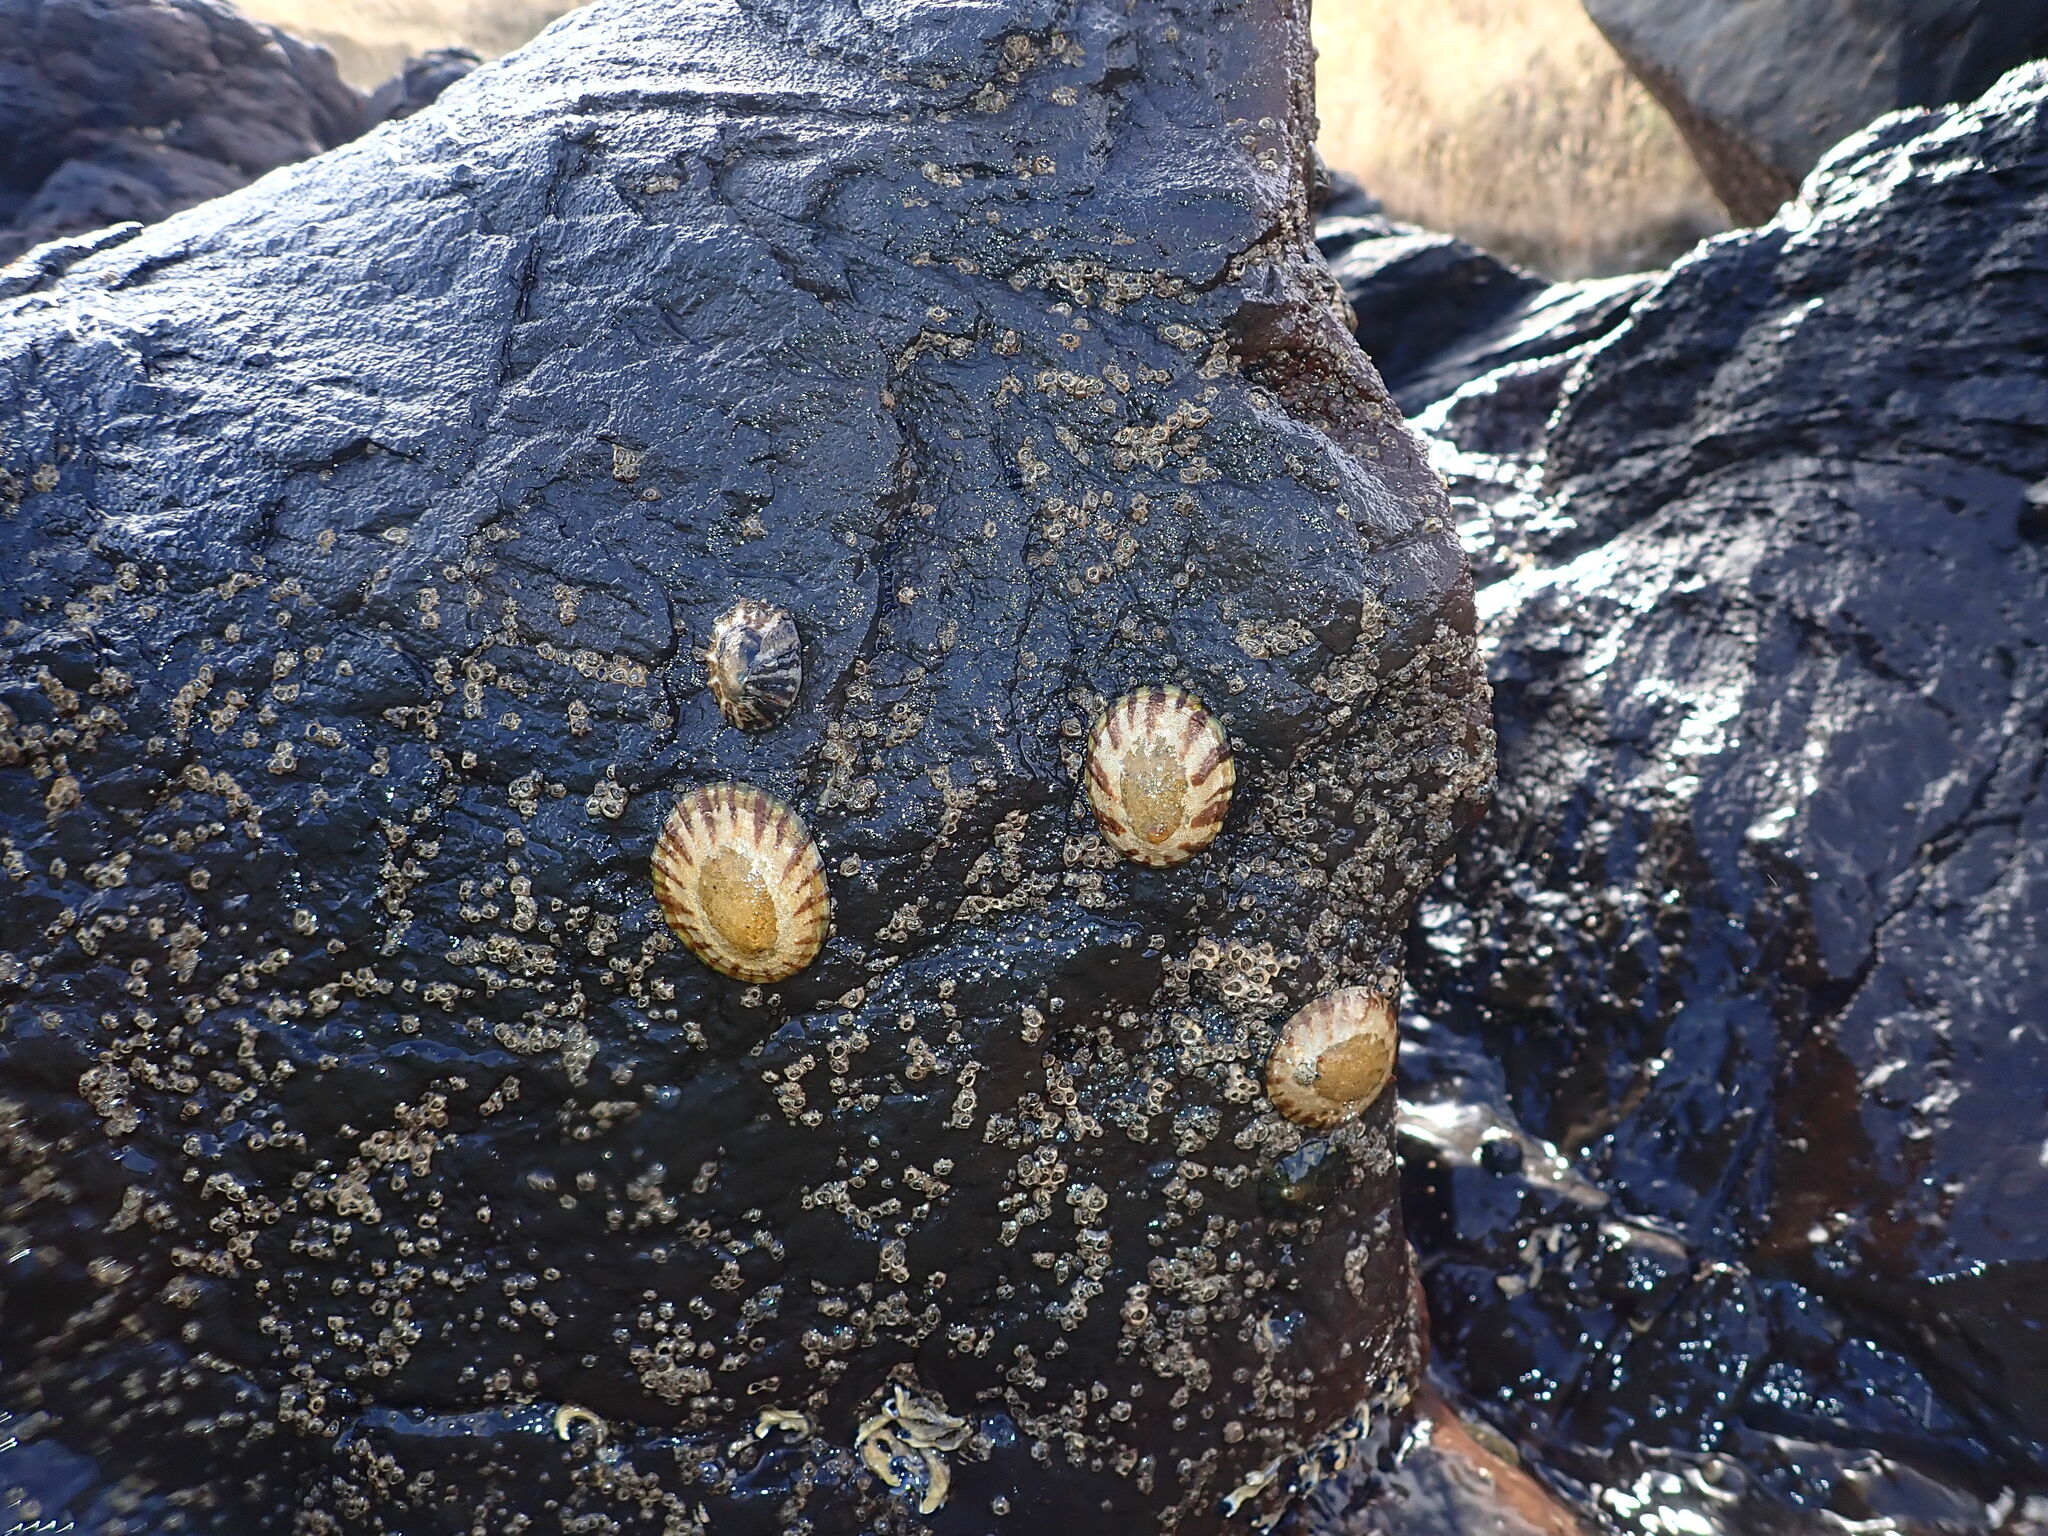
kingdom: Animalia
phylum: Mollusca
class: Gastropoda
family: Nacellidae
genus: Cellana
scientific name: Cellana radians
